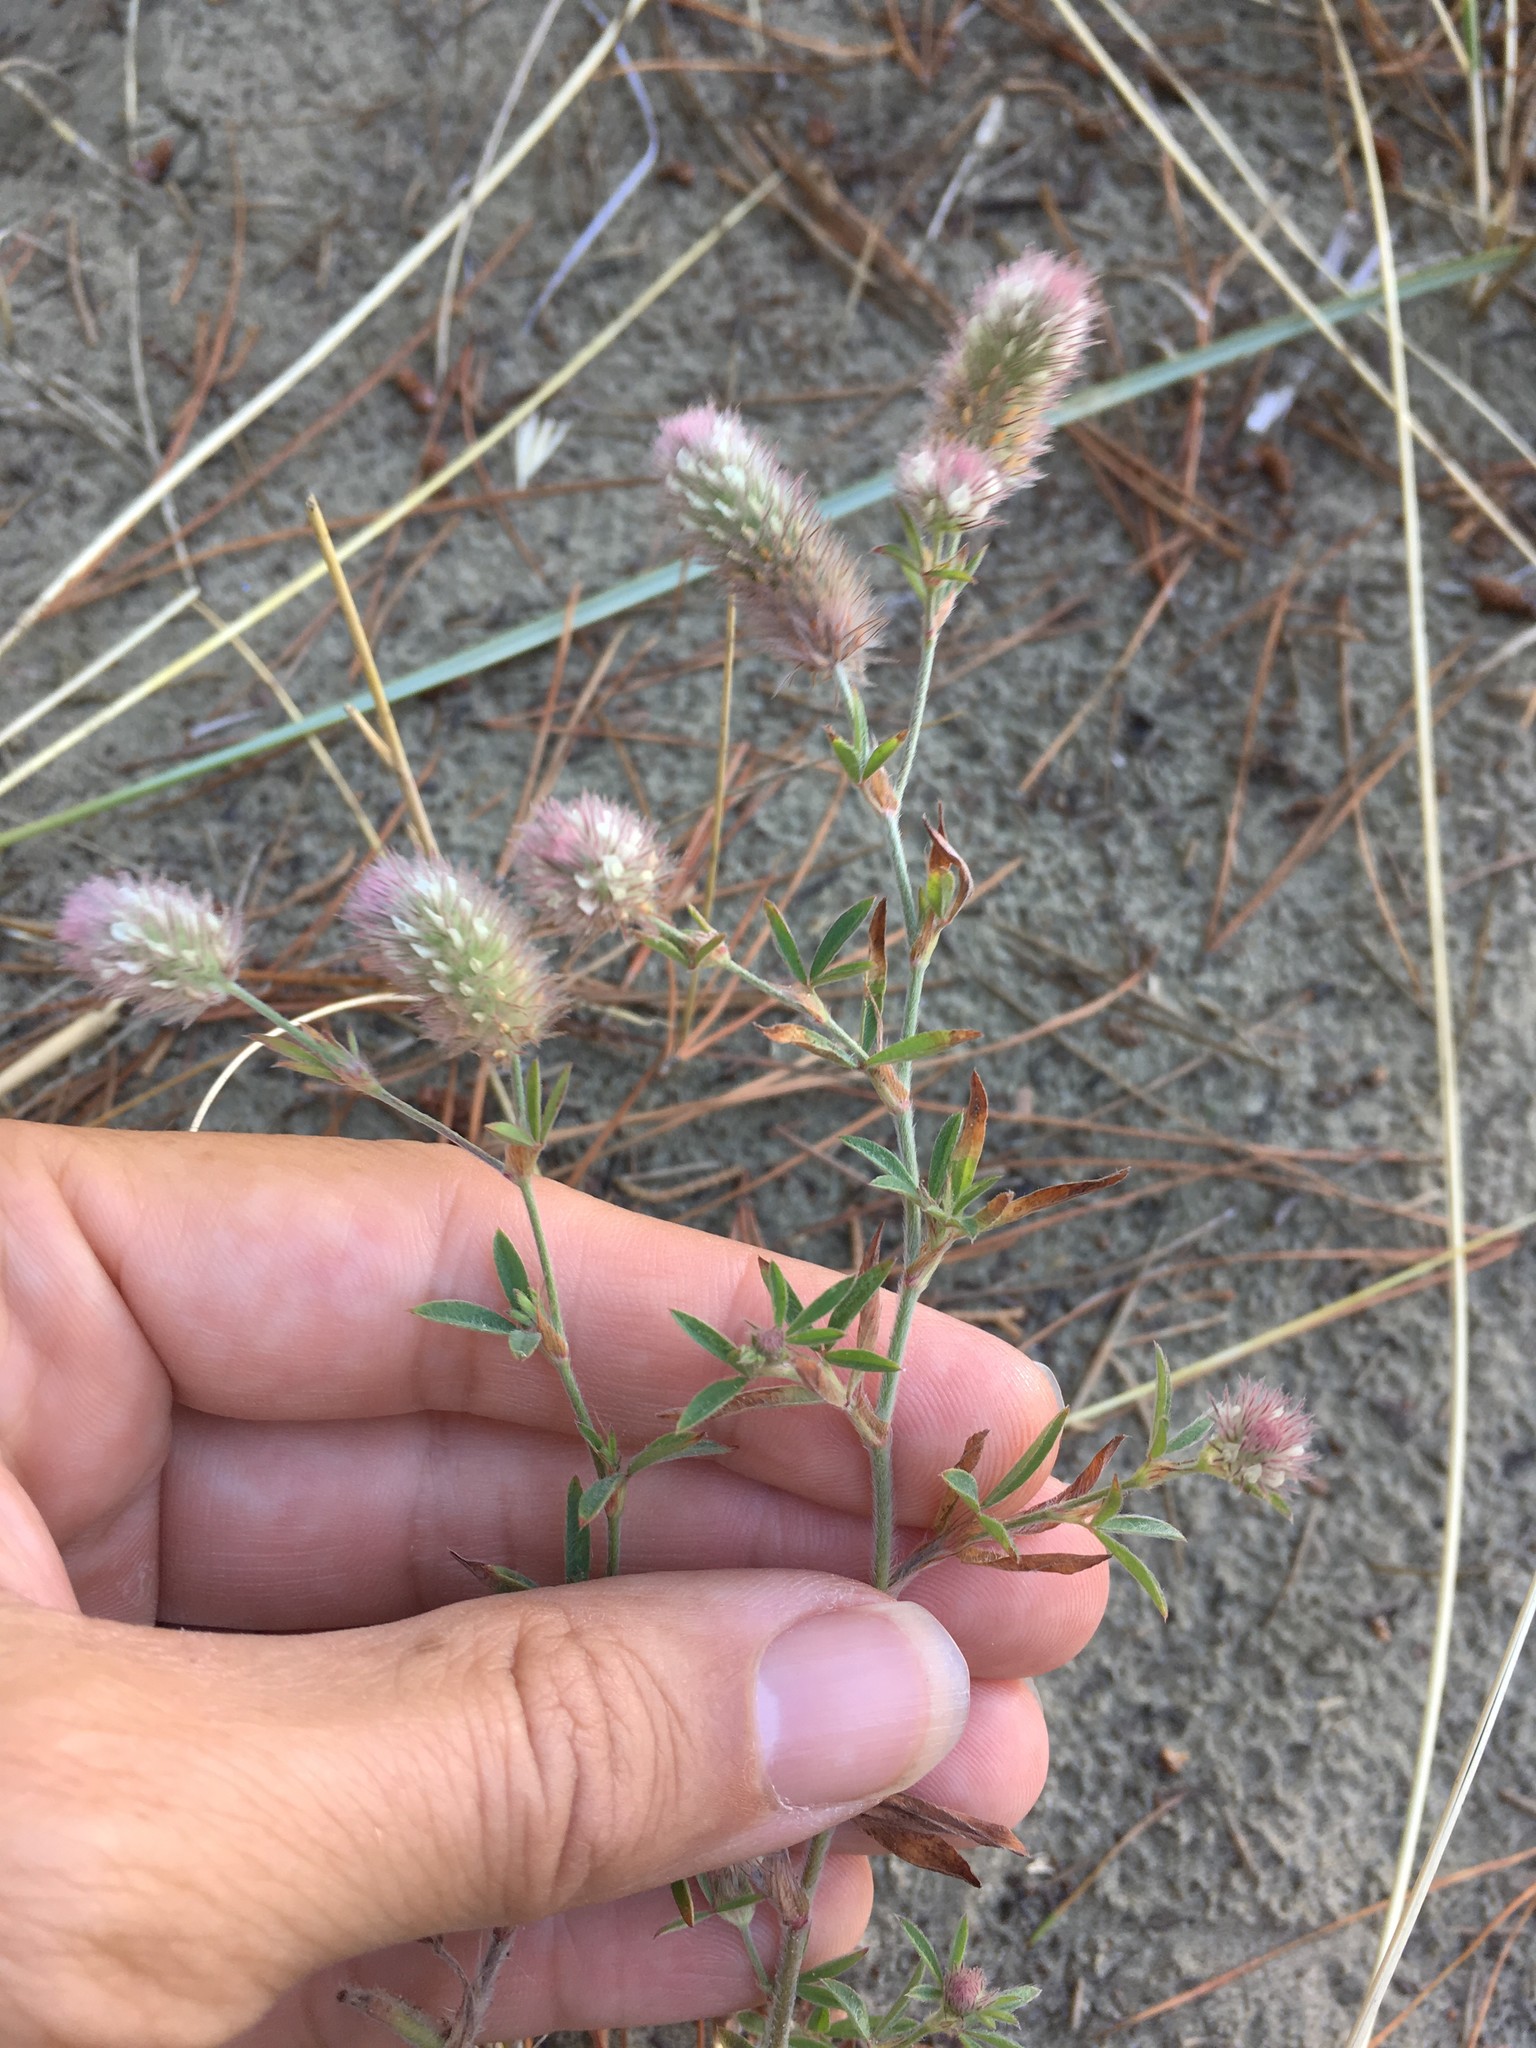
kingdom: Plantae
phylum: Tracheophyta
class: Magnoliopsida
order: Fabales
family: Fabaceae
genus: Trifolium
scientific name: Trifolium arvense
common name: Hare's-foot clover
